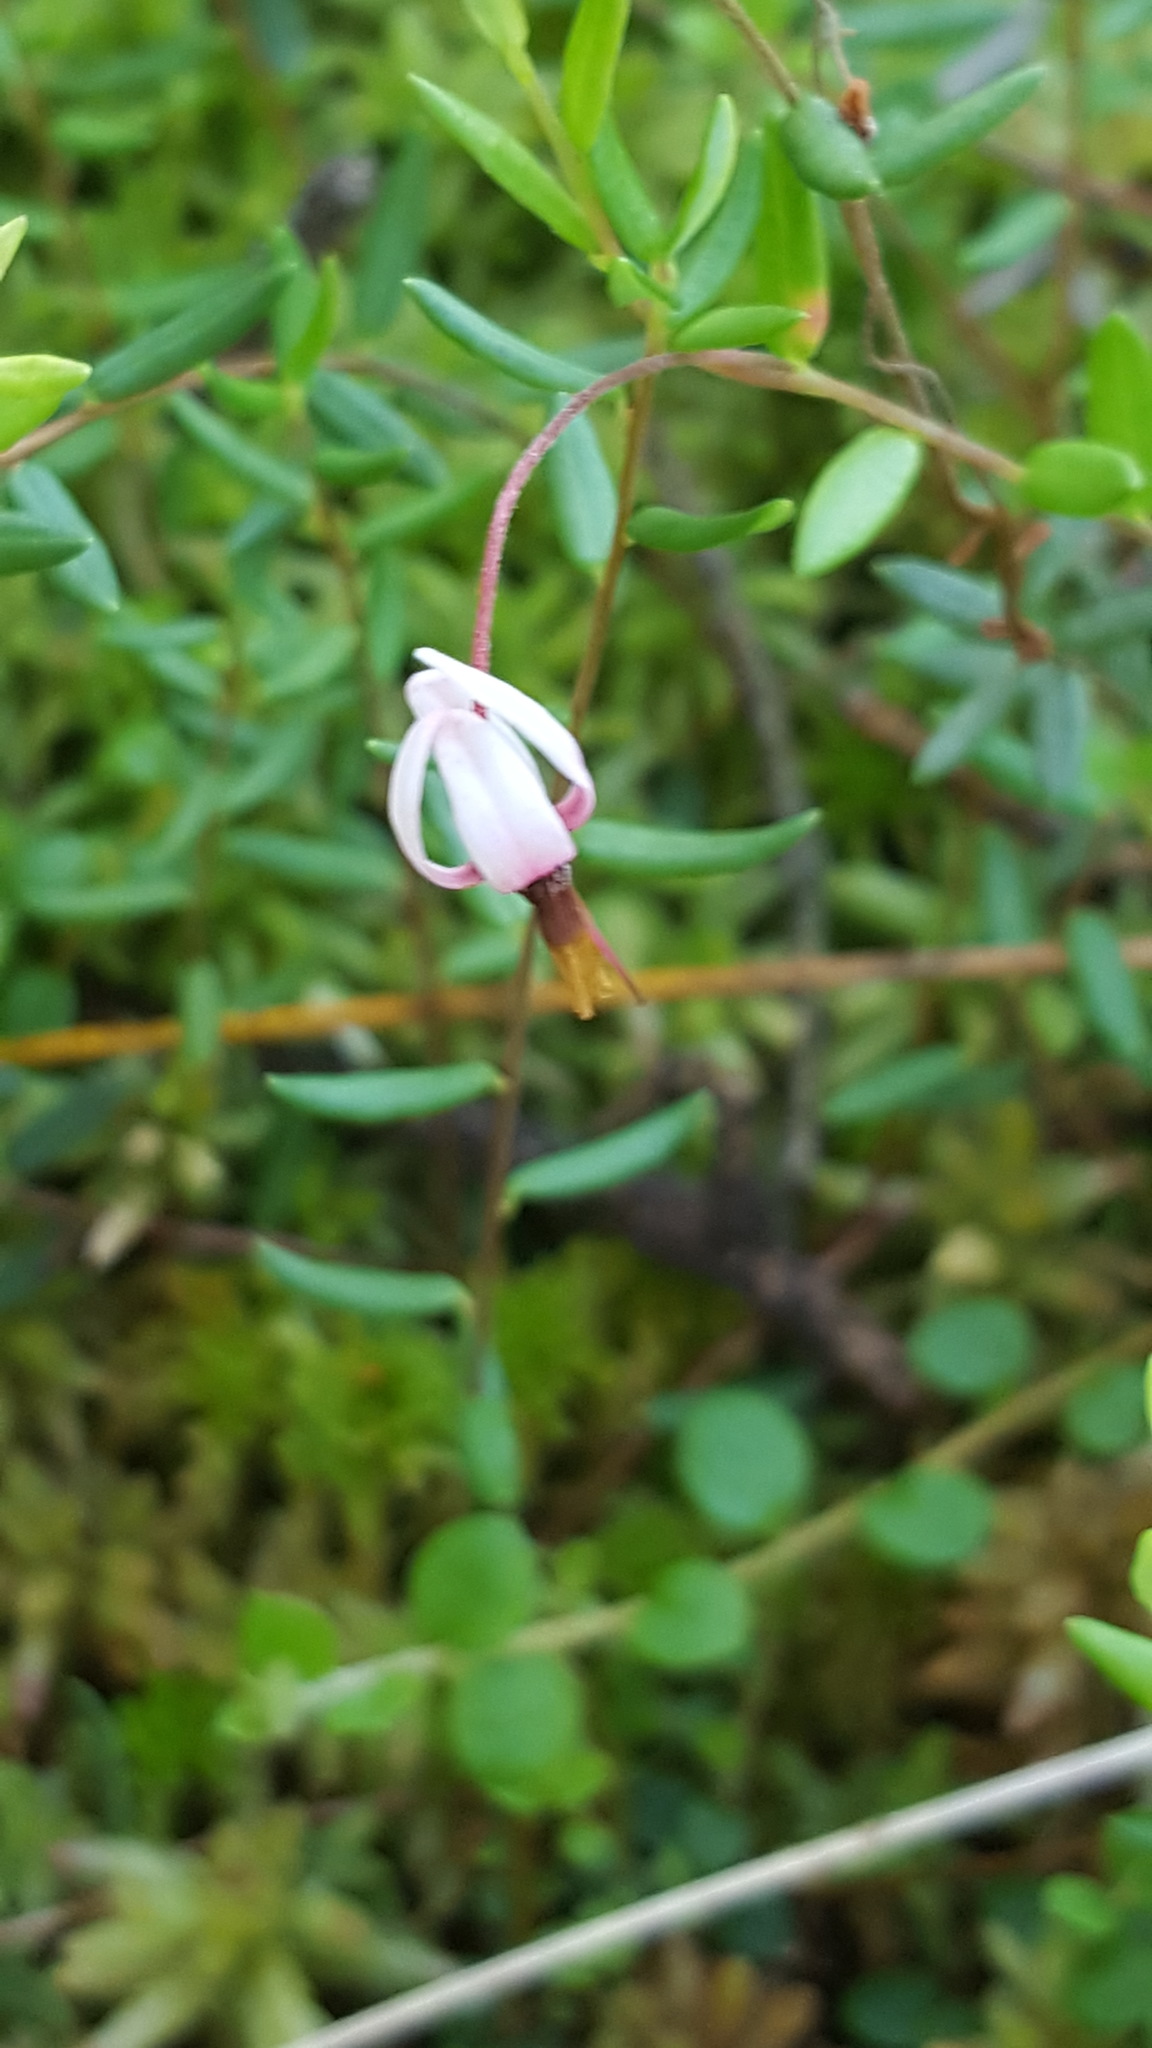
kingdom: Plantae
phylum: Tracheophyta
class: Magnoliopsida
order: Ericales
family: Ericaceae
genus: Vaccinium
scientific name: Vaccinium oxycoccos
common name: Cranberry
